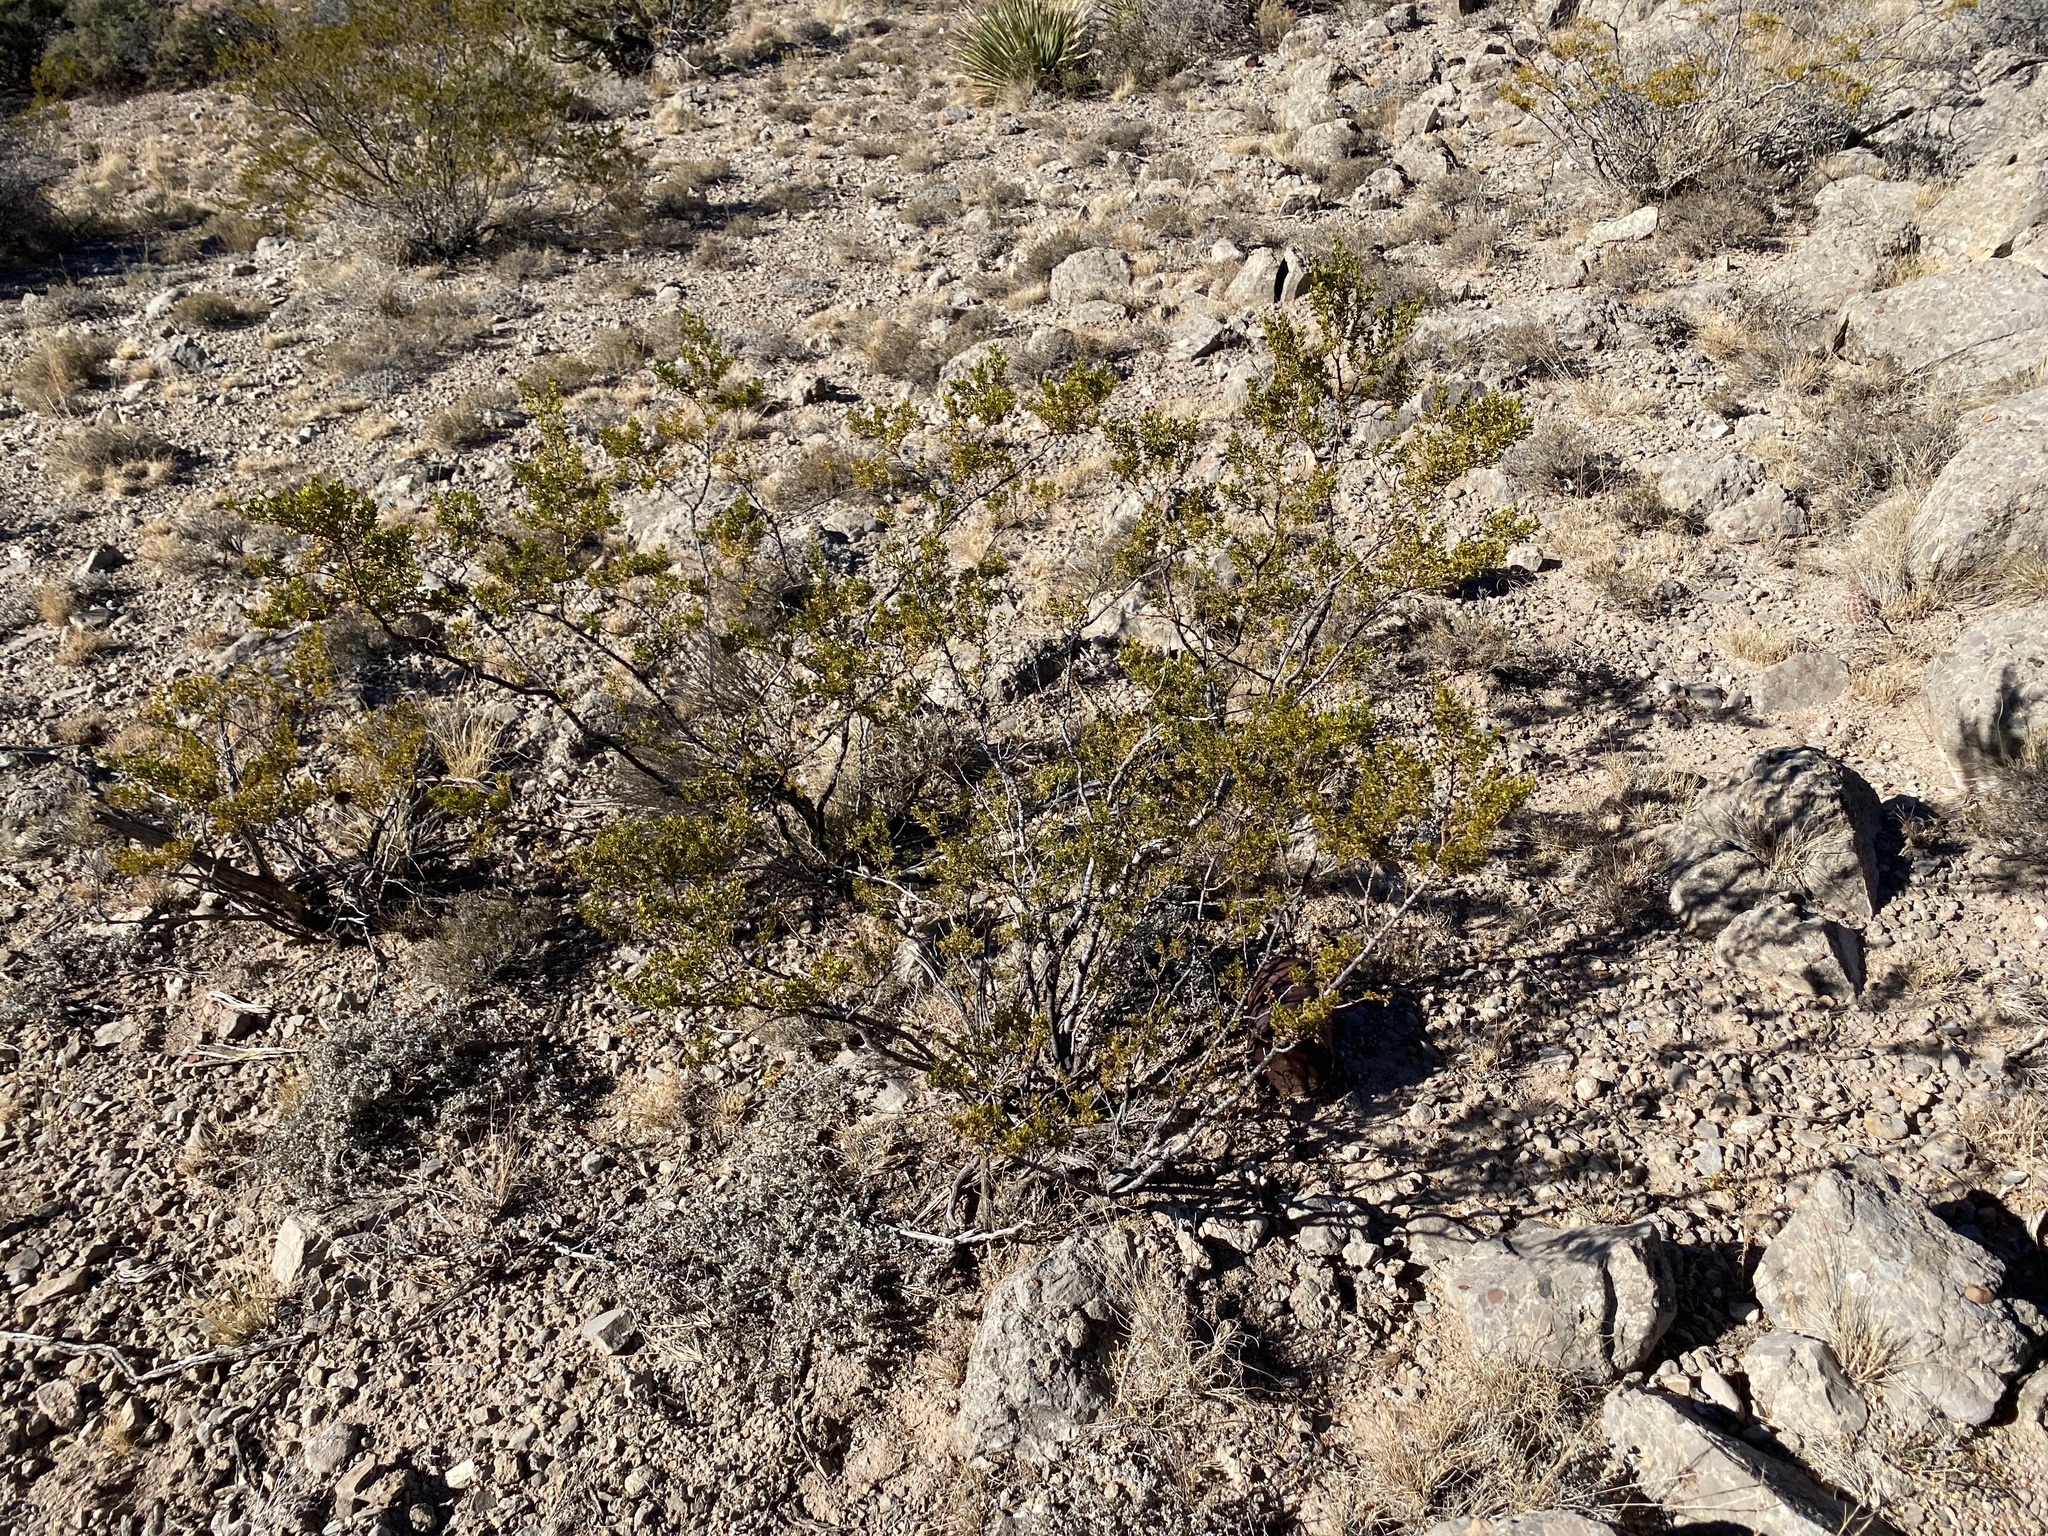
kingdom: Plantae
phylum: Tracheophyta
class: Magnoliopsida
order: Zygophyllales
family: Zygophyllaceae
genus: Larrea
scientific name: Larrea tridentata
